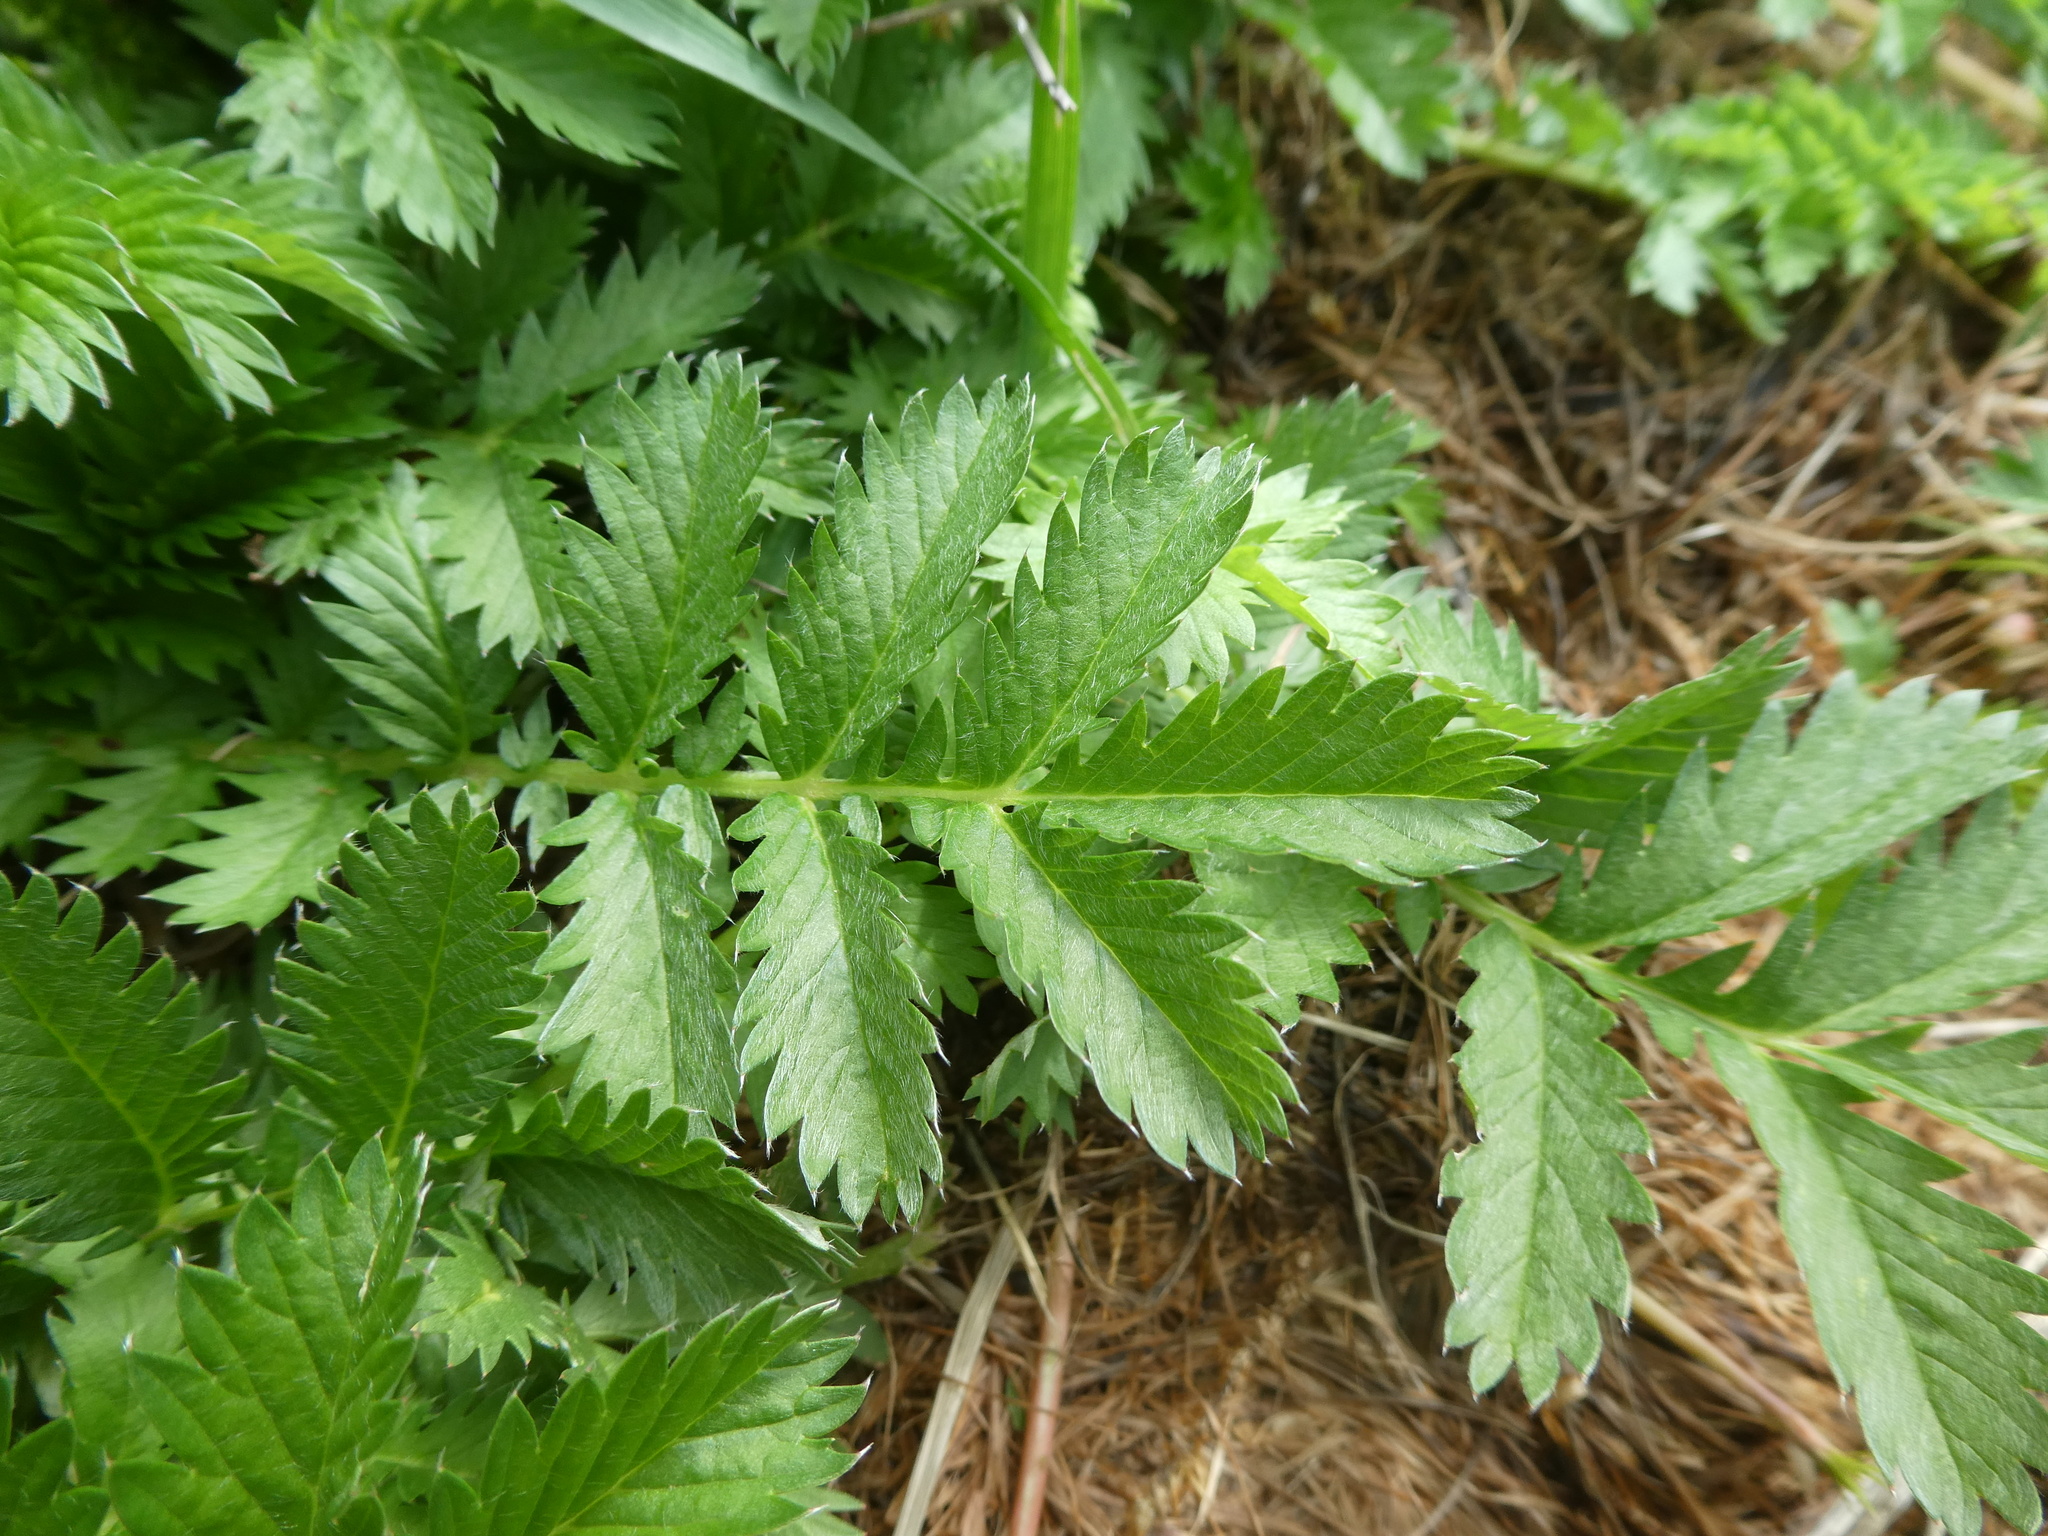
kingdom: Plantae
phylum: Tracheophyta
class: Magnoliopsida
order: Rosales
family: Rosaceae
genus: Argentina
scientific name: Argentina anserina
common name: Common silverweed
